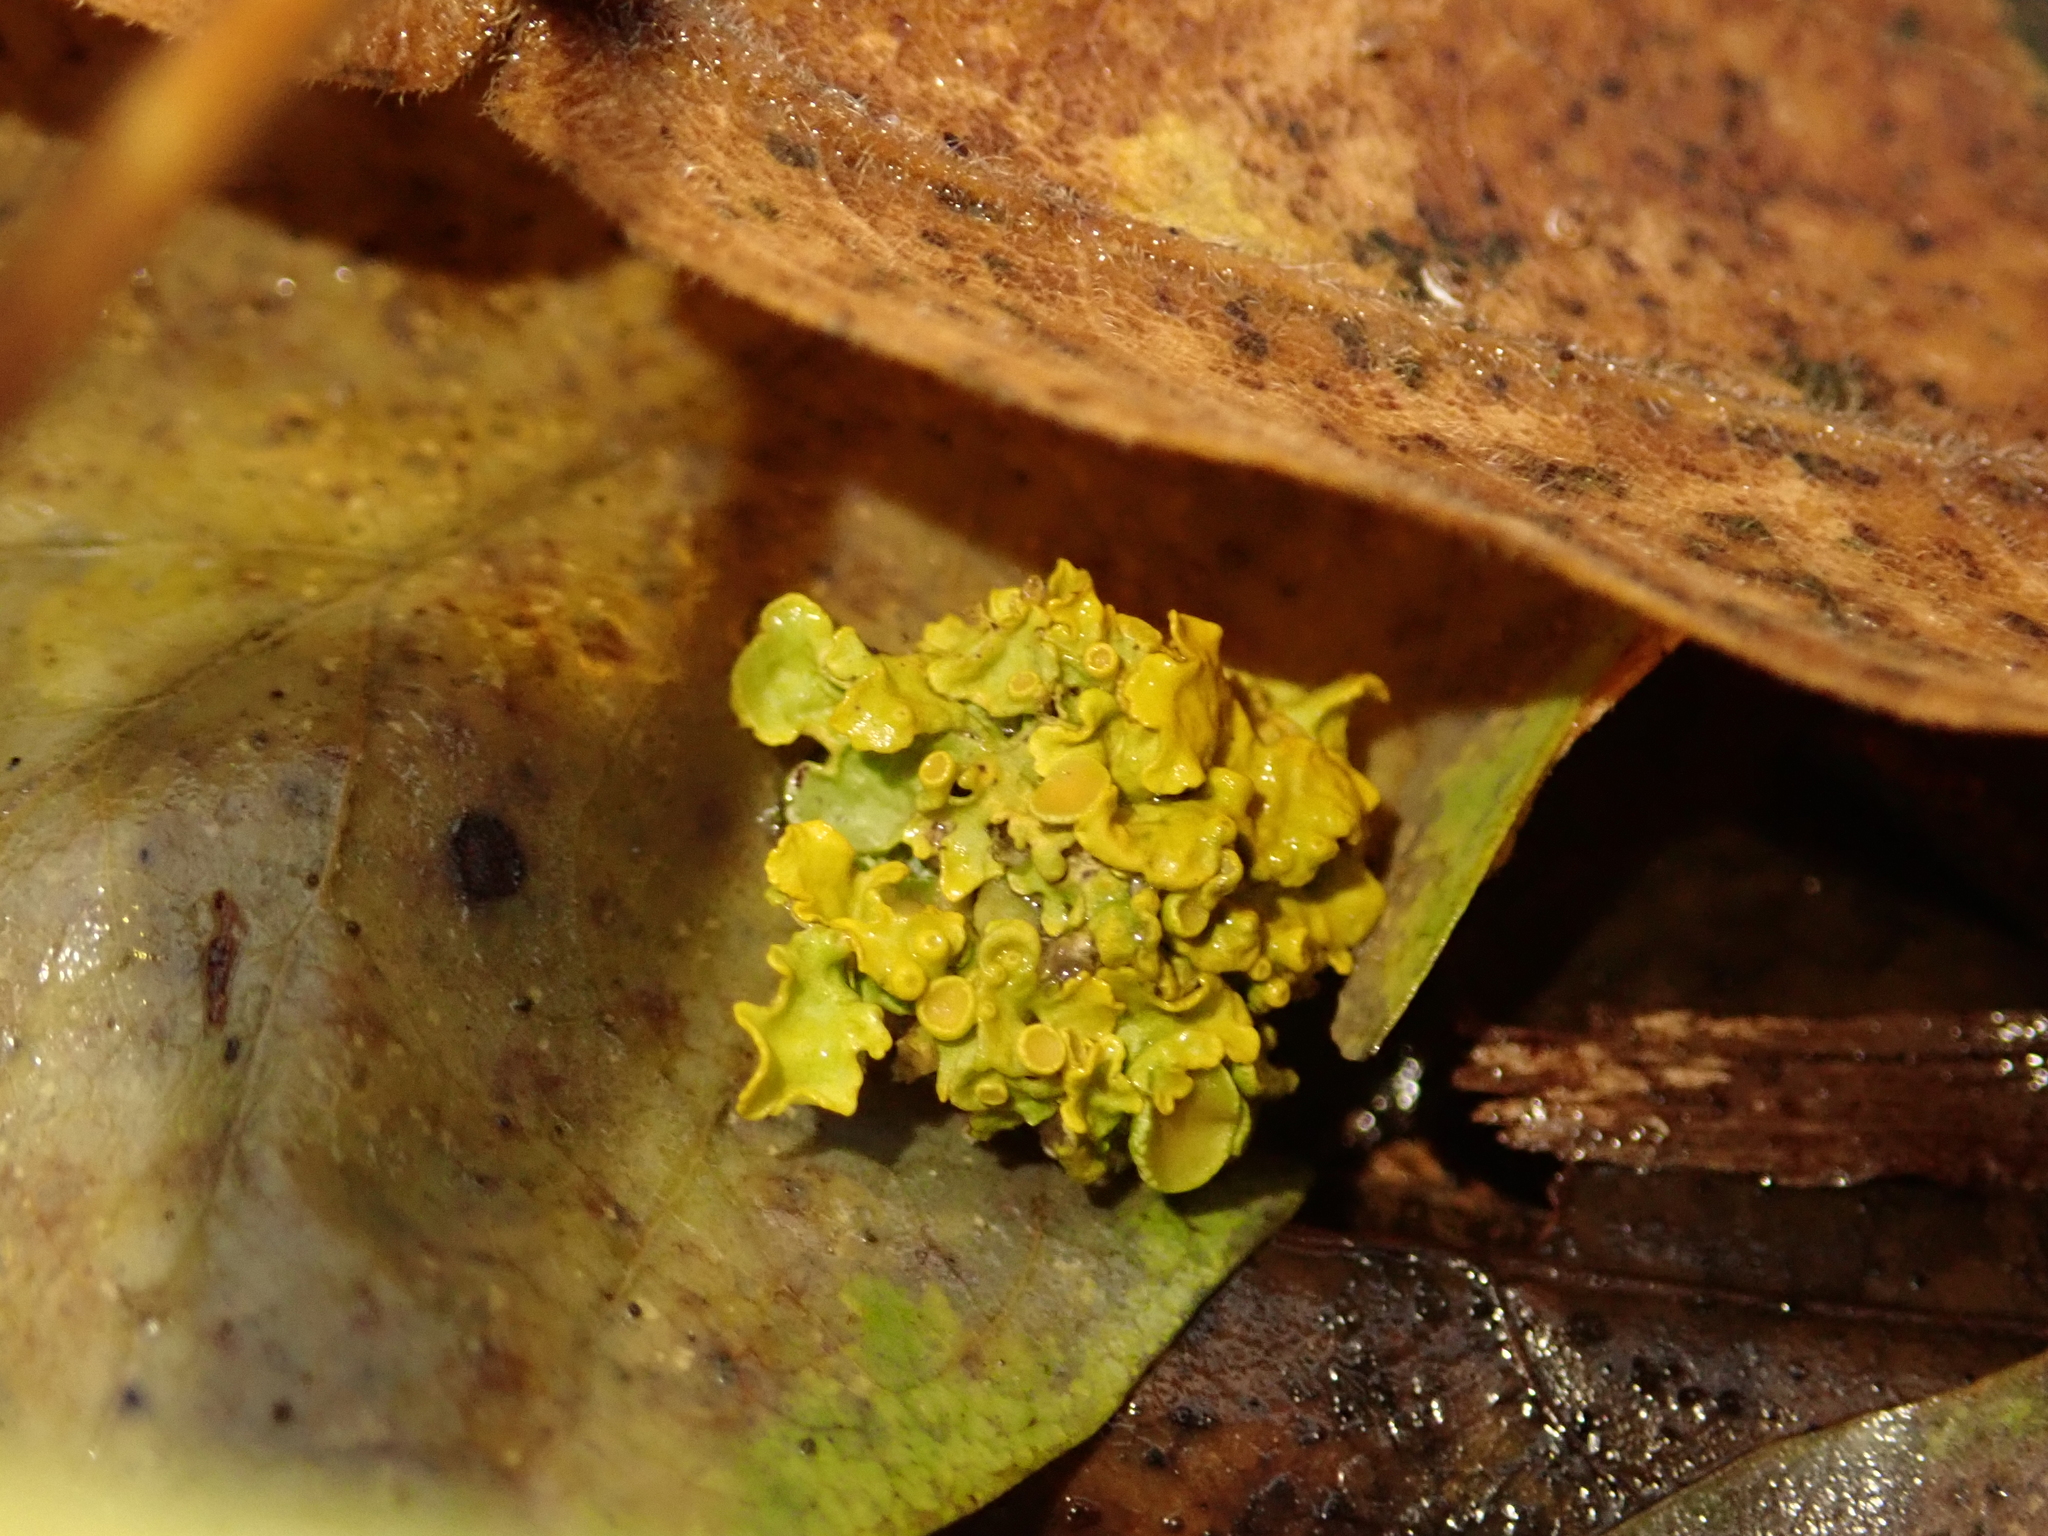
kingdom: Fungi
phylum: Ascomycota
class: Lecanoromycetes
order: Teloschistales
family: Teloschistaceae
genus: Xanthoria
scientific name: Xanthoria parietina
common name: Common orange lichen
